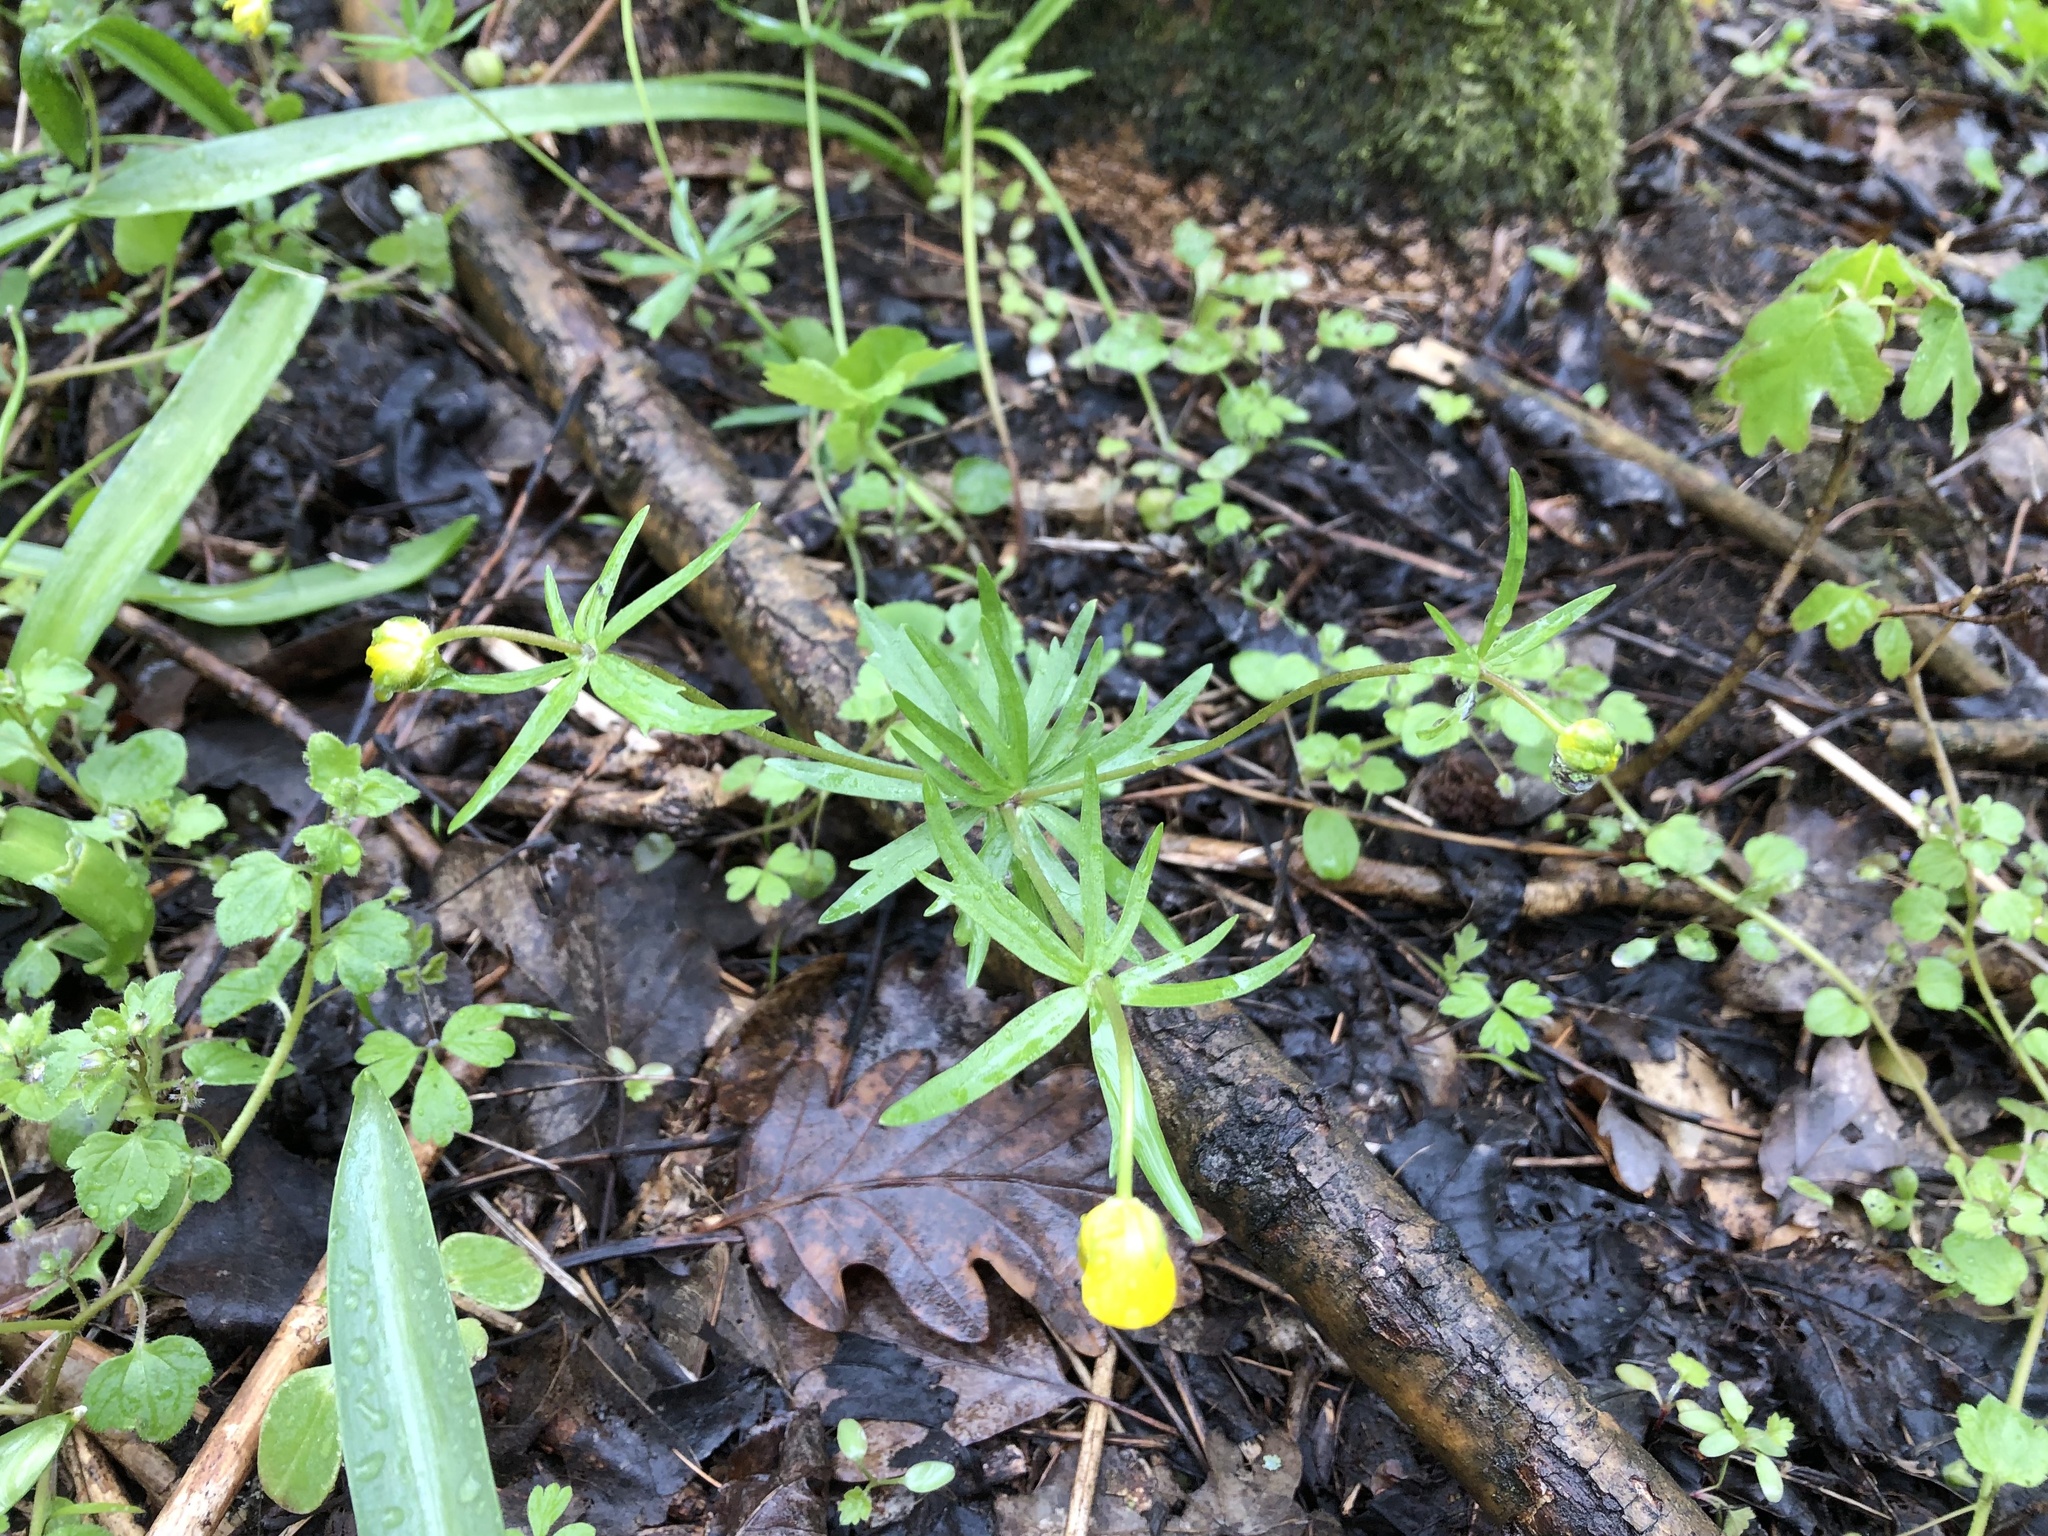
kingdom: Plantae
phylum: Tracheophyta
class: Magnoliopsida
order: Ranunculales
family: Ranunculaceae
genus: Ranunculus
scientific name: Ranunculus auricomus
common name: Goldilocks buttercup
